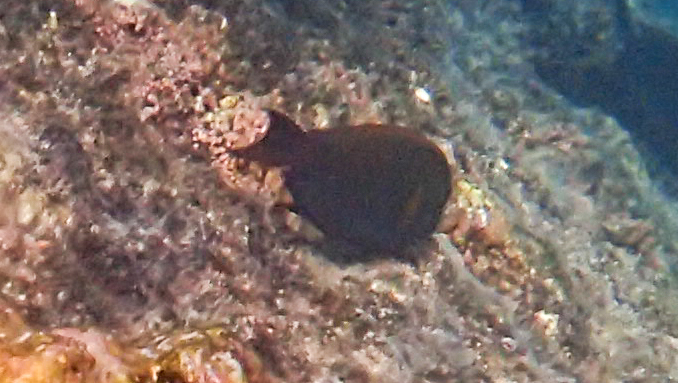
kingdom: Animalia
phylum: Chordata
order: Perciformes
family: Acanthuridae
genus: Acanthurus
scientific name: Acanthurus nigrofuscus
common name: Blackspot surgeonfish
